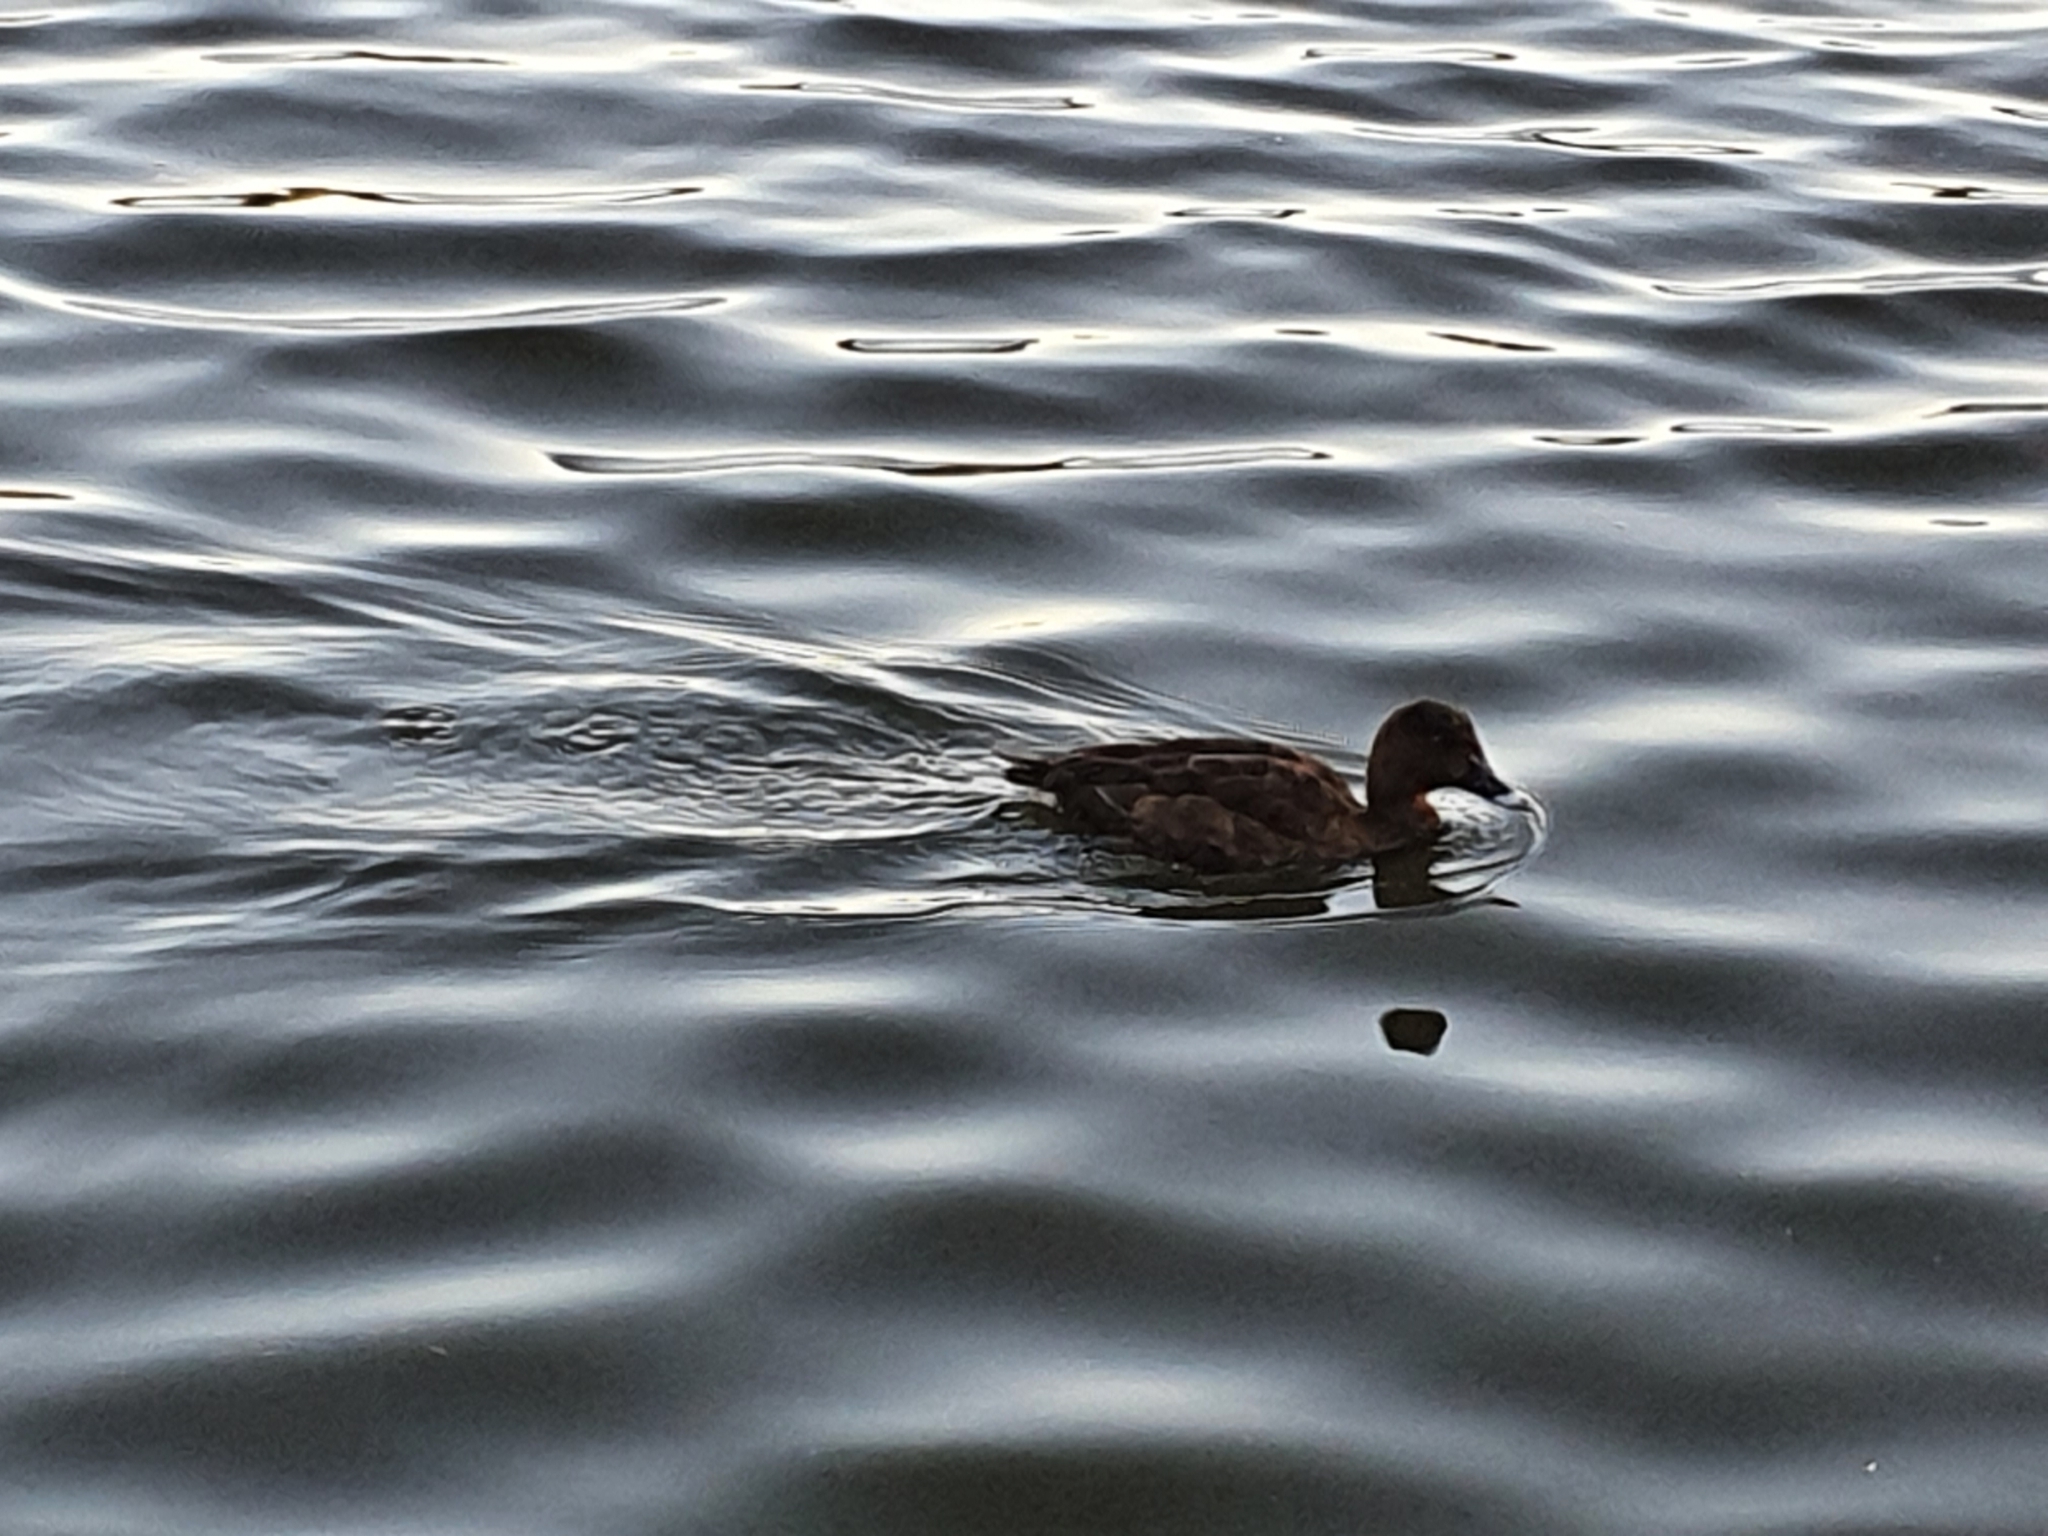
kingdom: Animalia
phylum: Chordata
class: Aves
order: Anseriformes
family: Anatidae
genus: Aythya
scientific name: Aythya australis
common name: Hardhead
